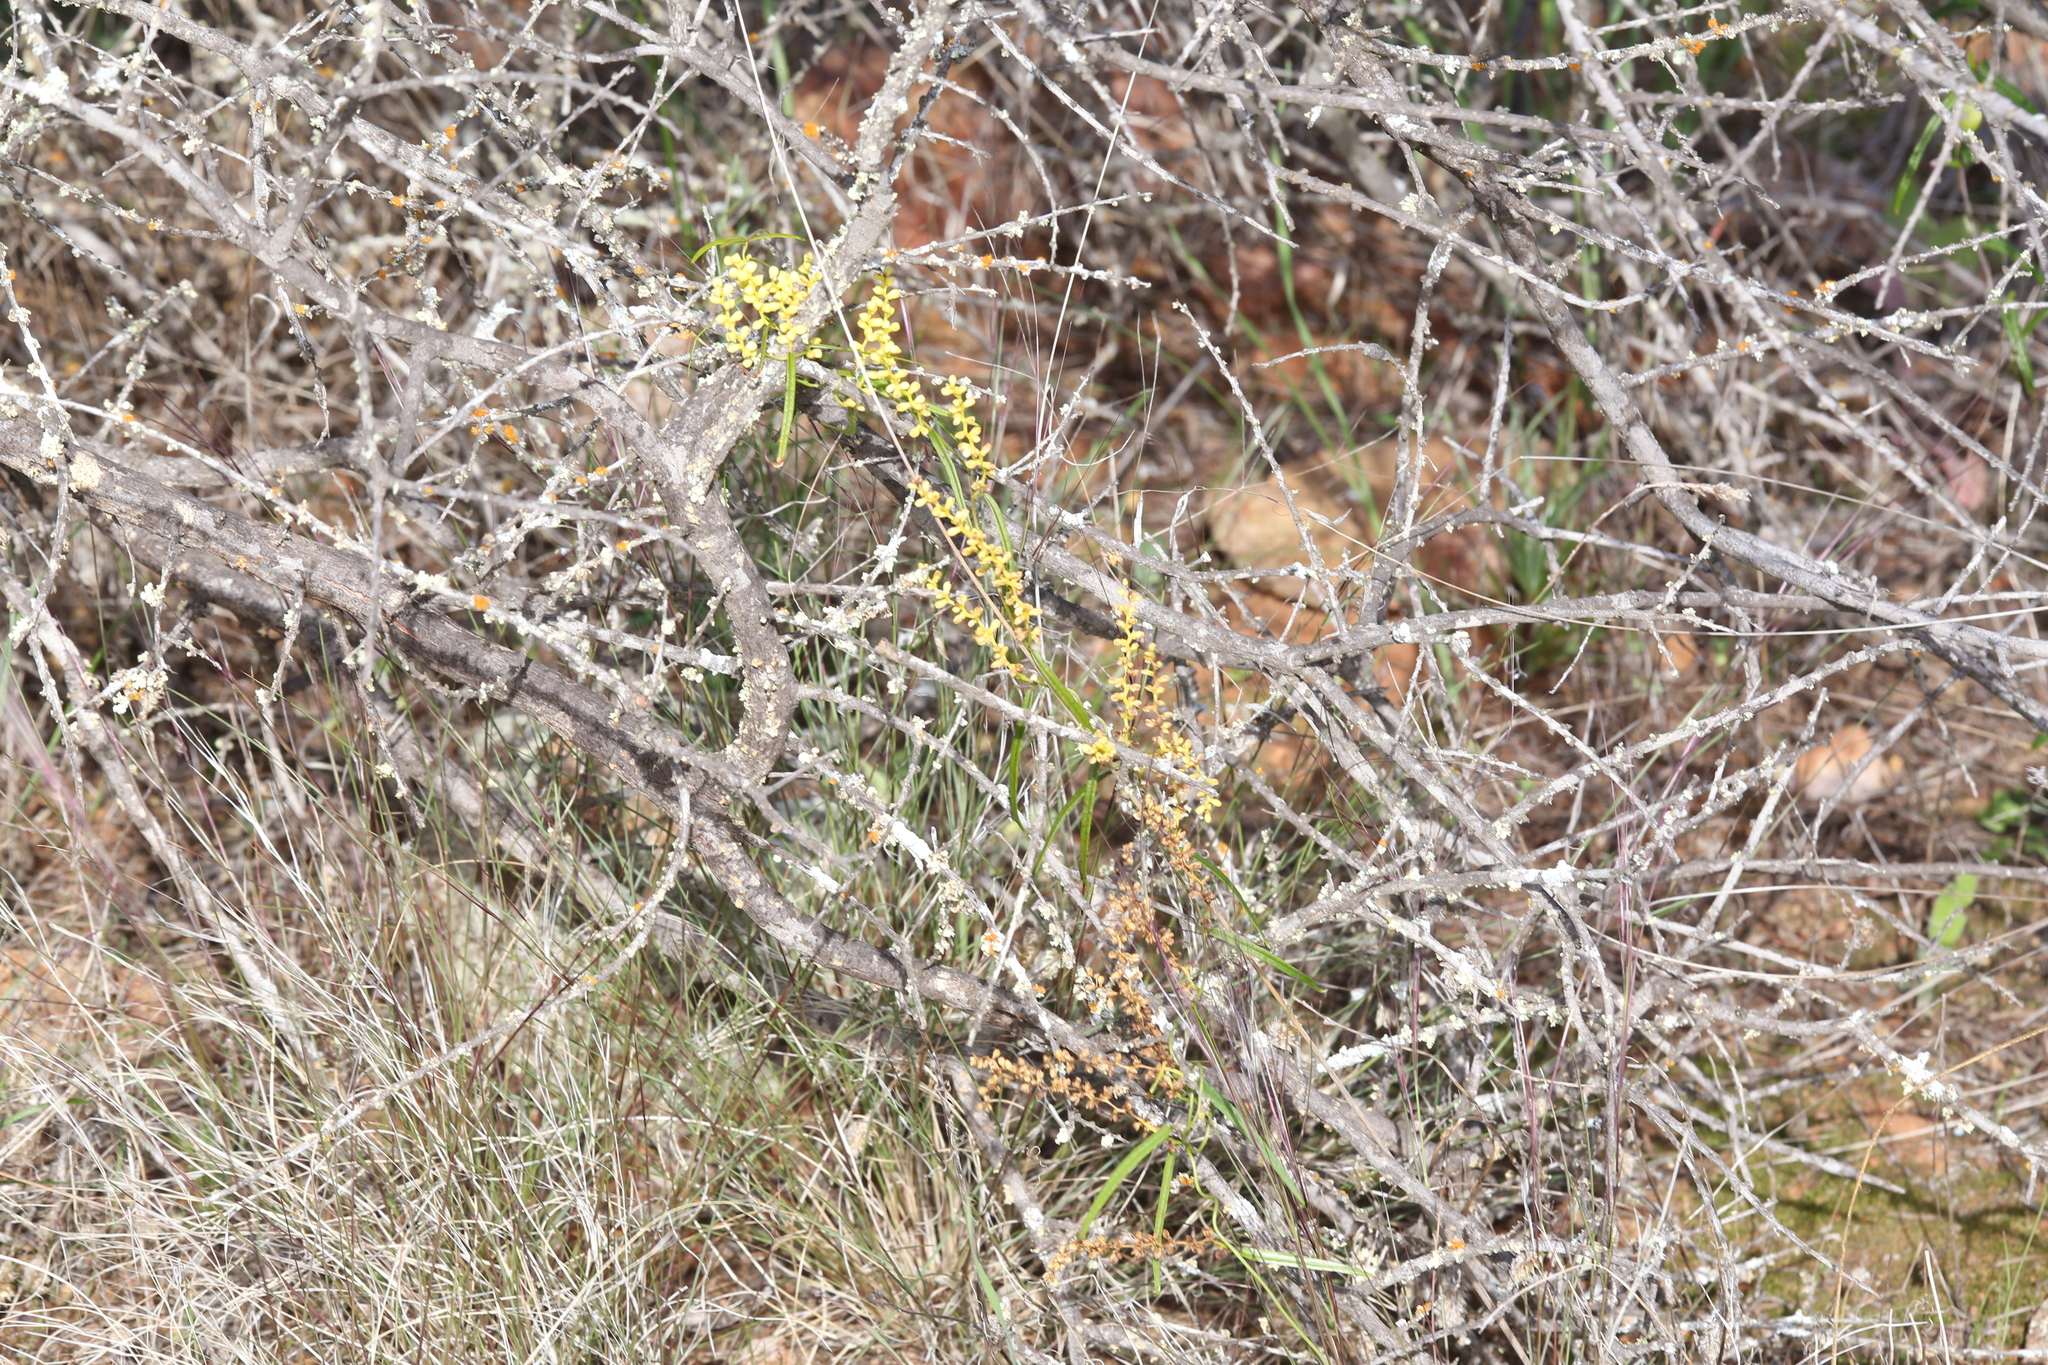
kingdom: Plantae
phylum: Tracheophyta
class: Liliopsida
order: Dioscoreales
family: Dioscoreaceae
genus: Dioscorea
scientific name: Dioscorea hastifolia
